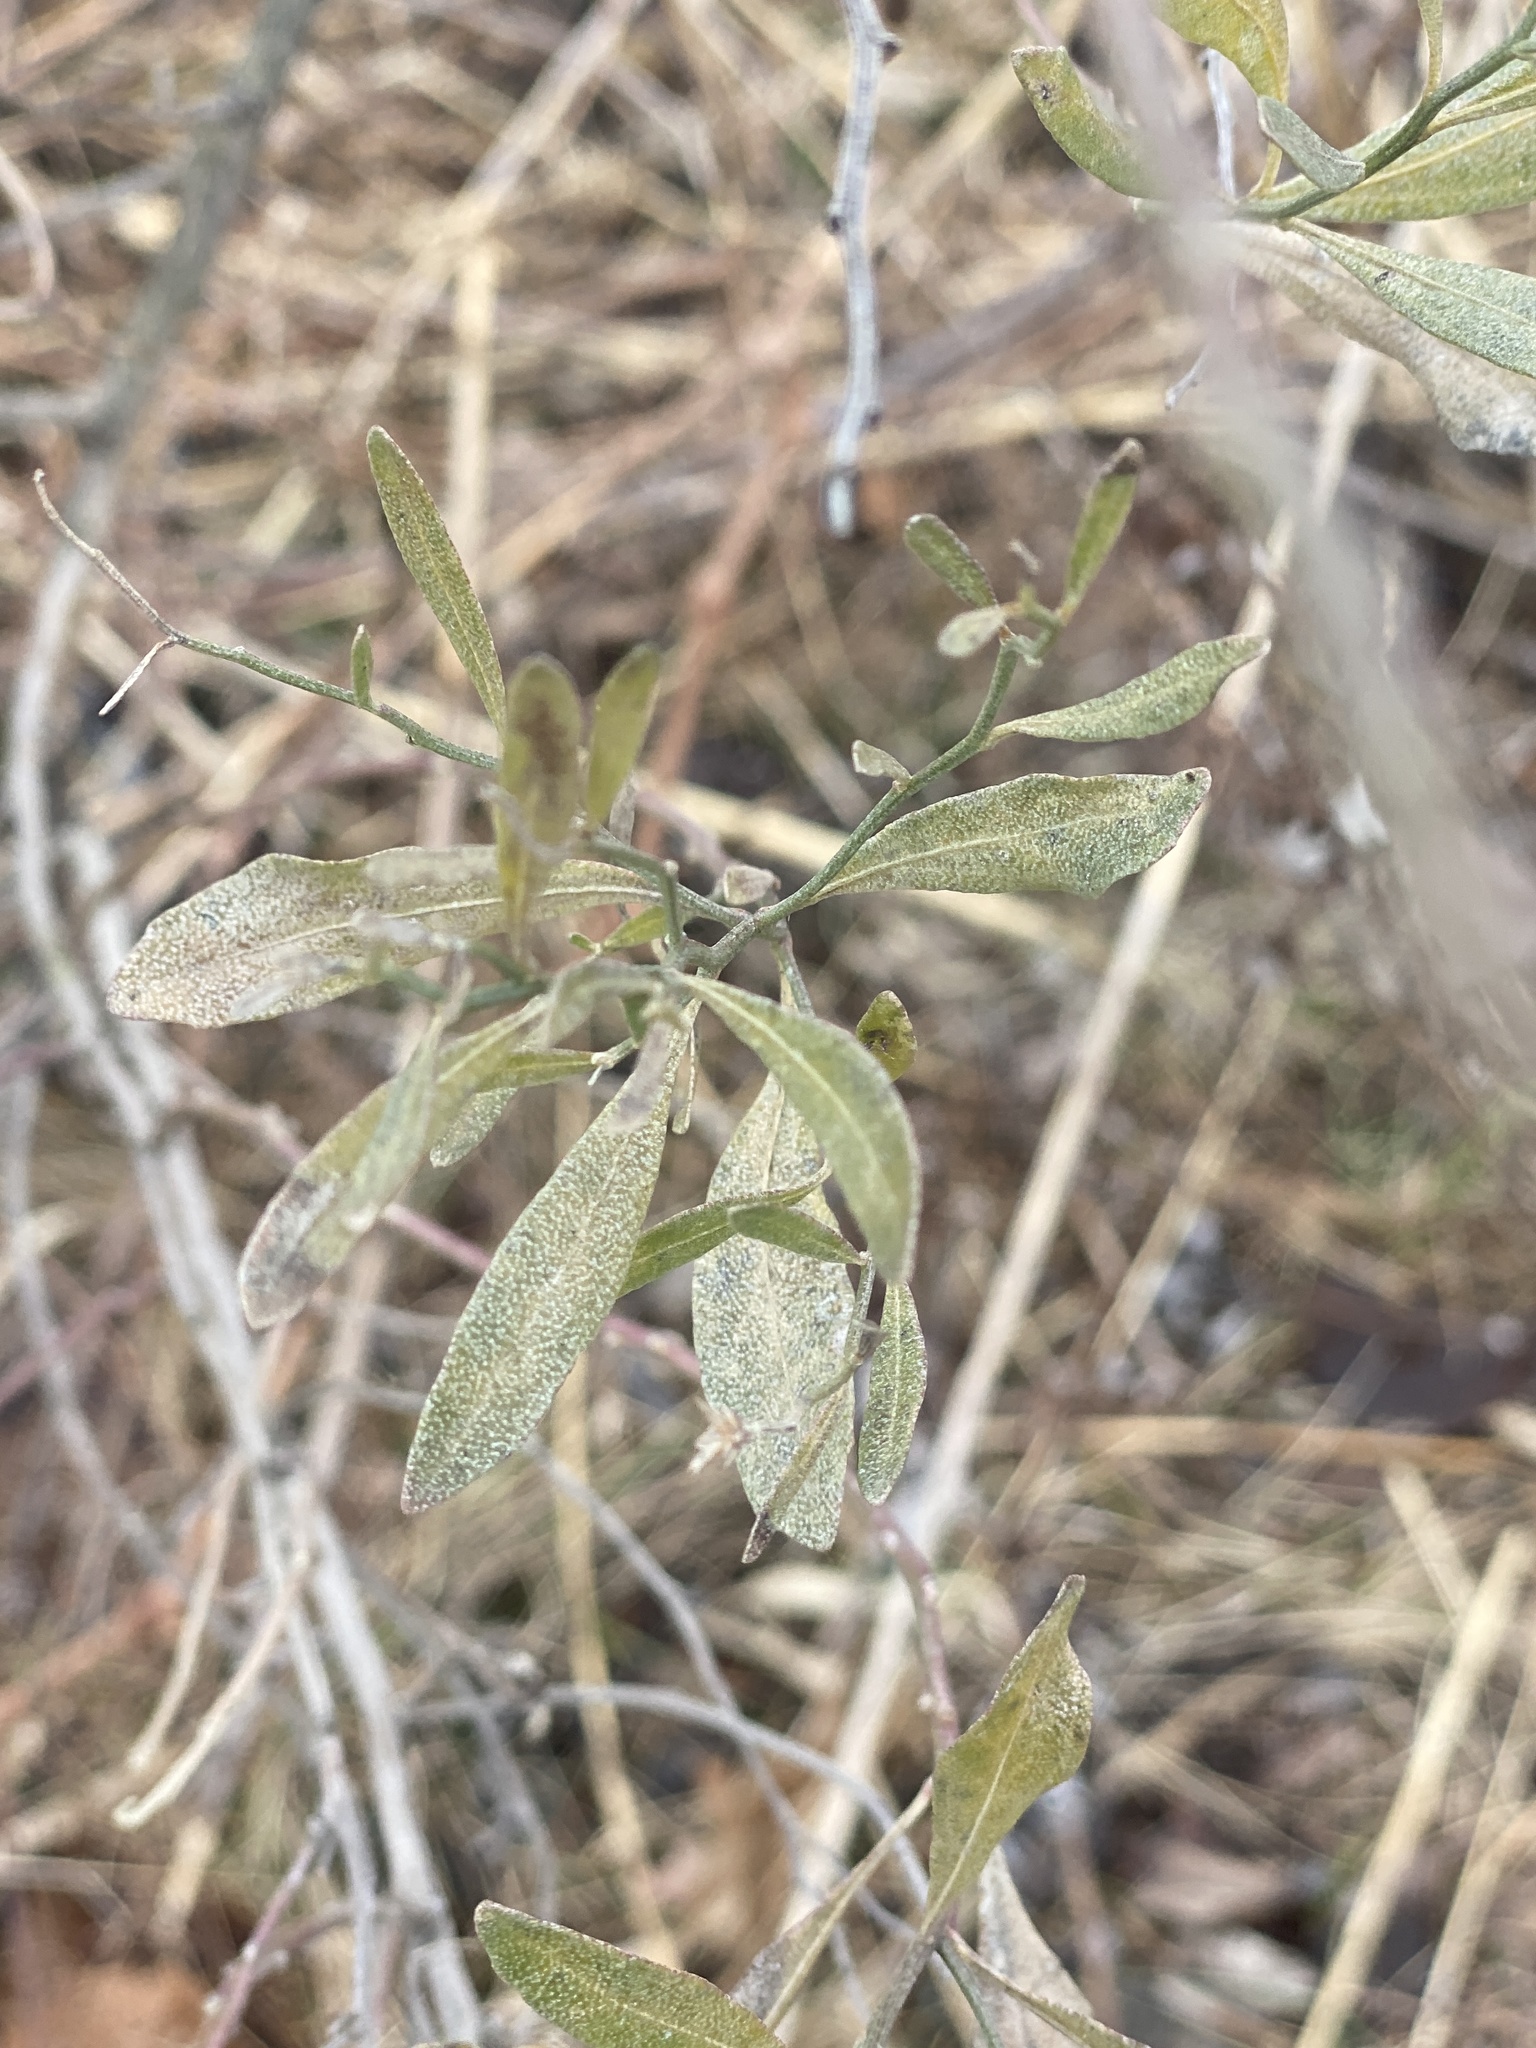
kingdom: Plantae
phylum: Tracheophyta
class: Magnoliopsida
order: Asterales
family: Asteraceae
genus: Baccharis
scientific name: Baccharis halimifolia
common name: Eastern baccharis
